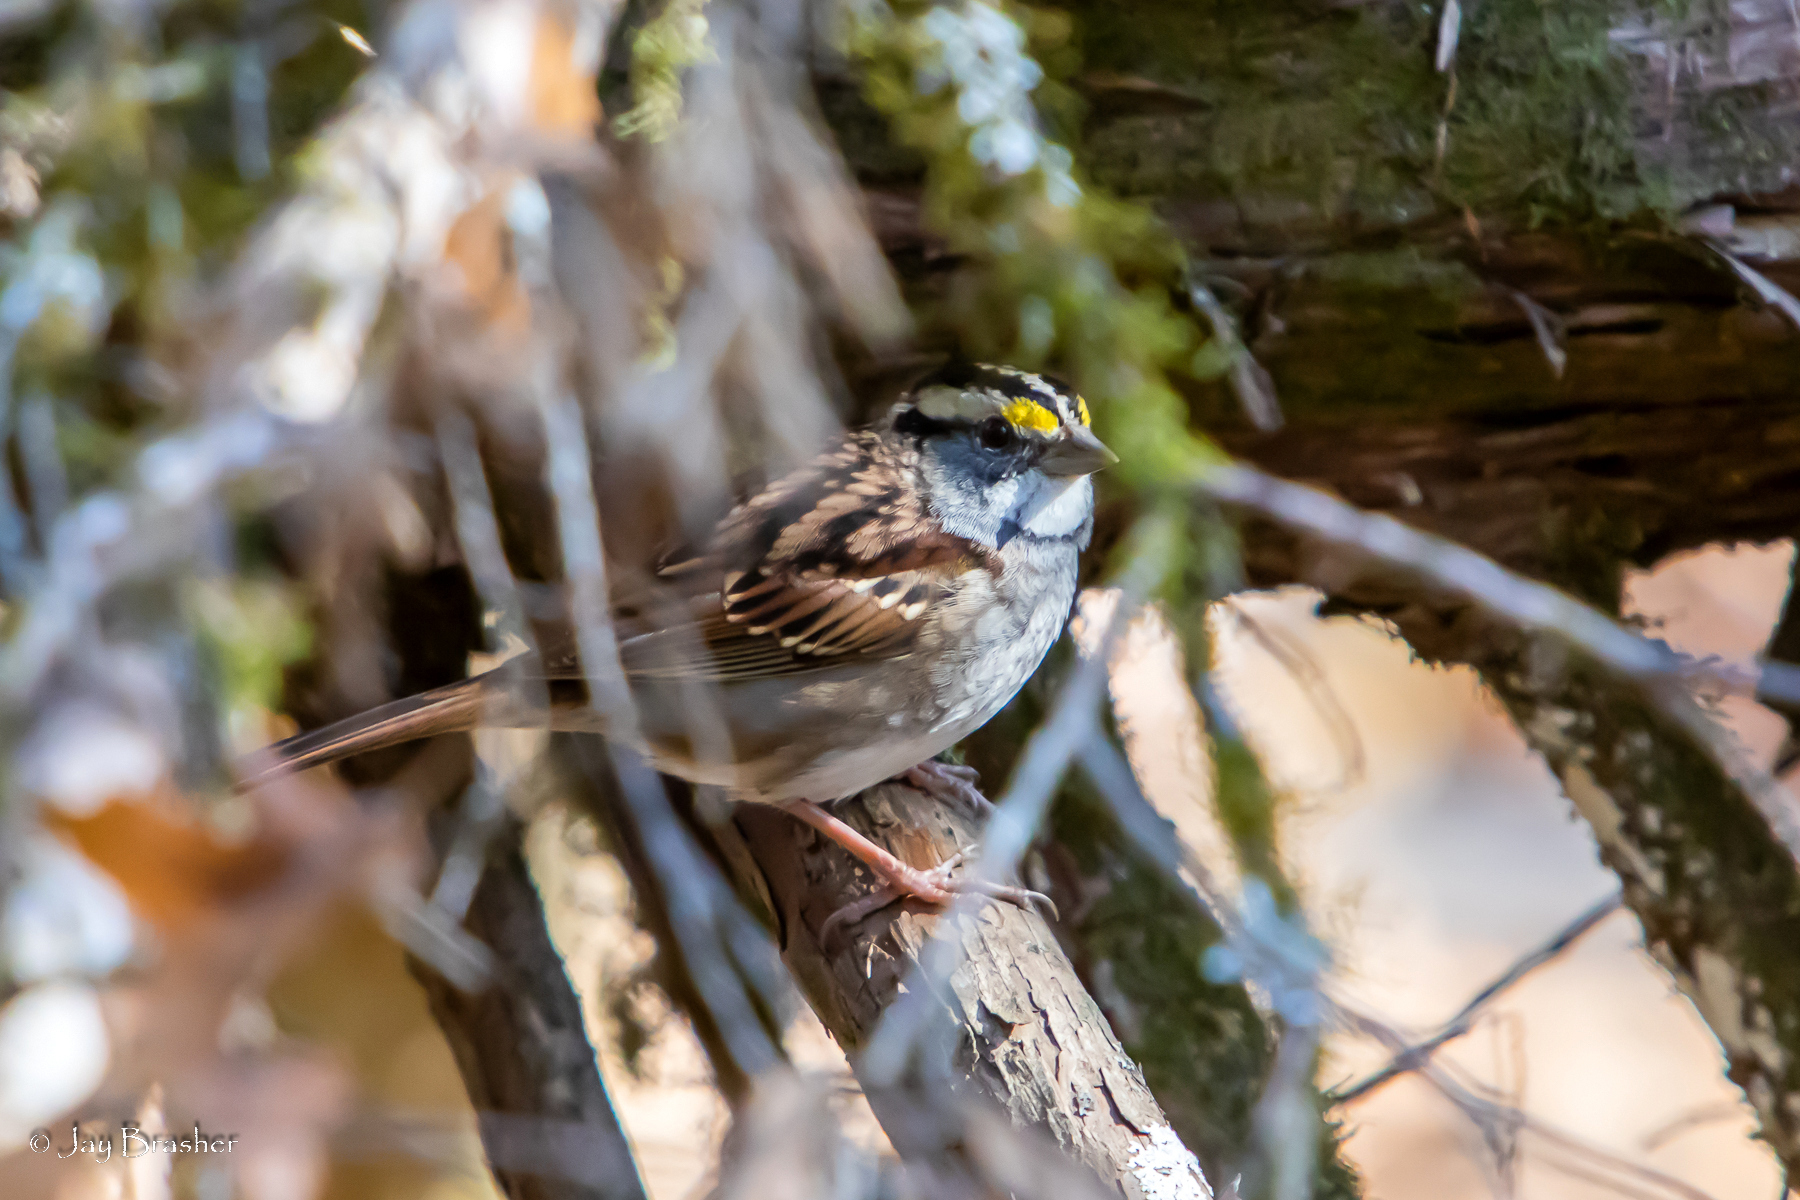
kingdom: Animalia
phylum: Chordata
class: Aves
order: Passeriformes
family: Passerellidae
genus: Zonotrichia
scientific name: Zonotrichia albicollis
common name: White-throated sparrow
